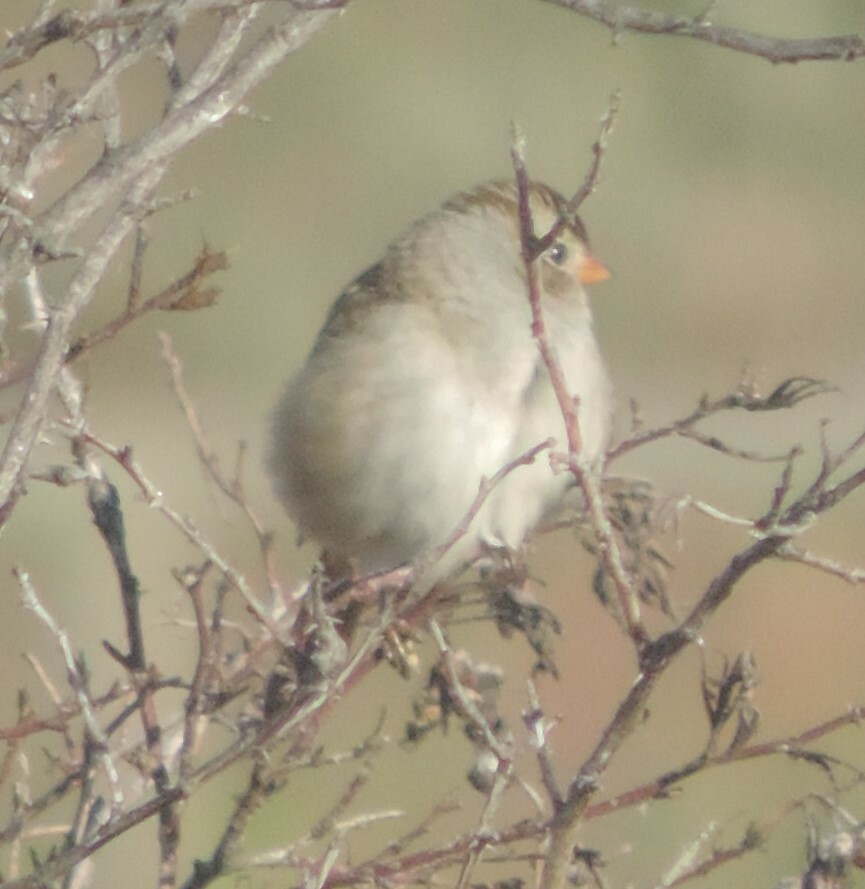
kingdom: Animalia
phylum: Chordata
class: Aves
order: Passeriformes
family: Passerellidae
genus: Zonotrichia
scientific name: Zonotrichia leucophrys
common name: White-crowned sparrow
